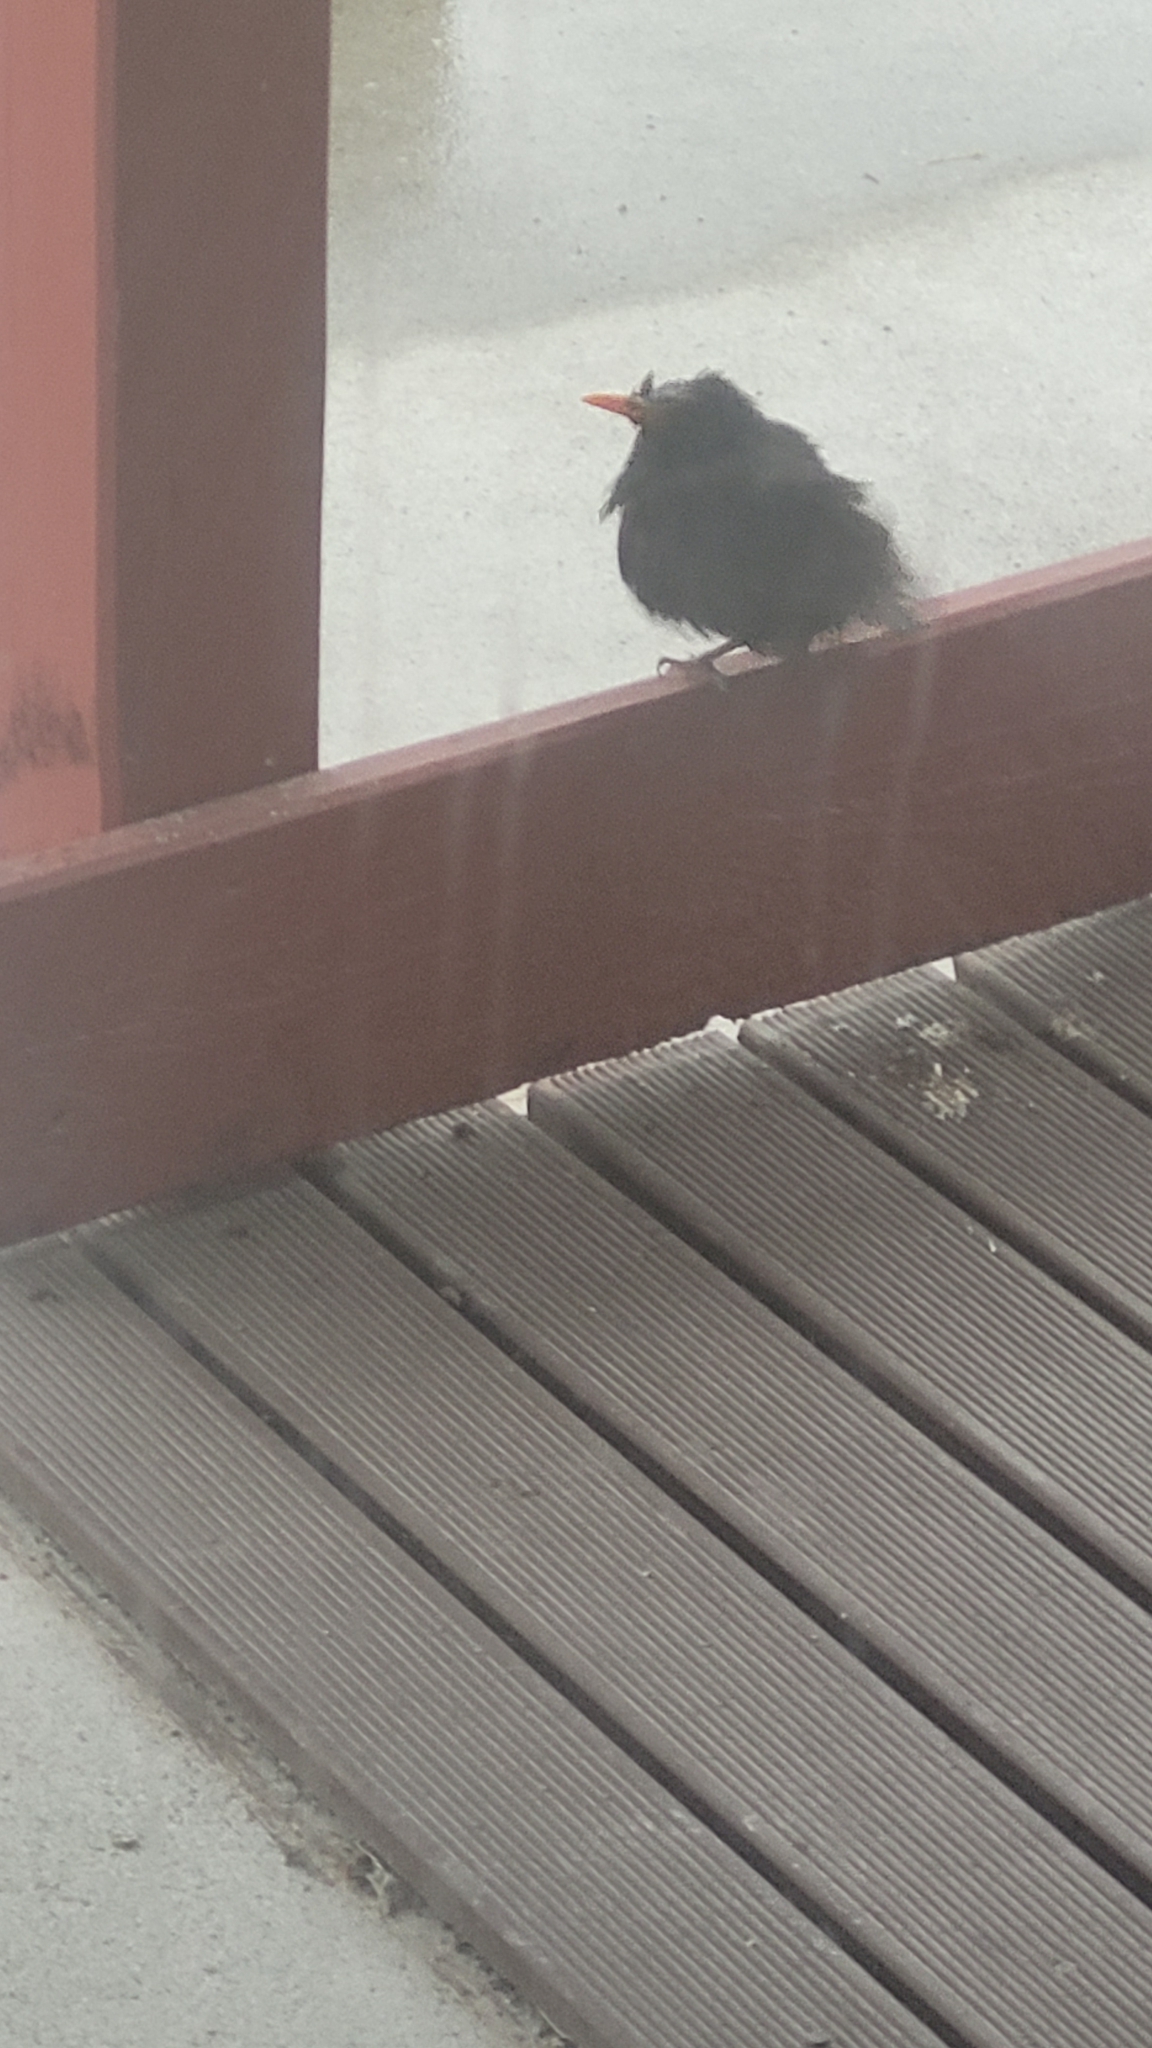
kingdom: Animalia
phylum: Chordata
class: Aves
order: Passeriformes
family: Turdidae
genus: Turdus
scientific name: Turdus merula
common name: Common blackbird
